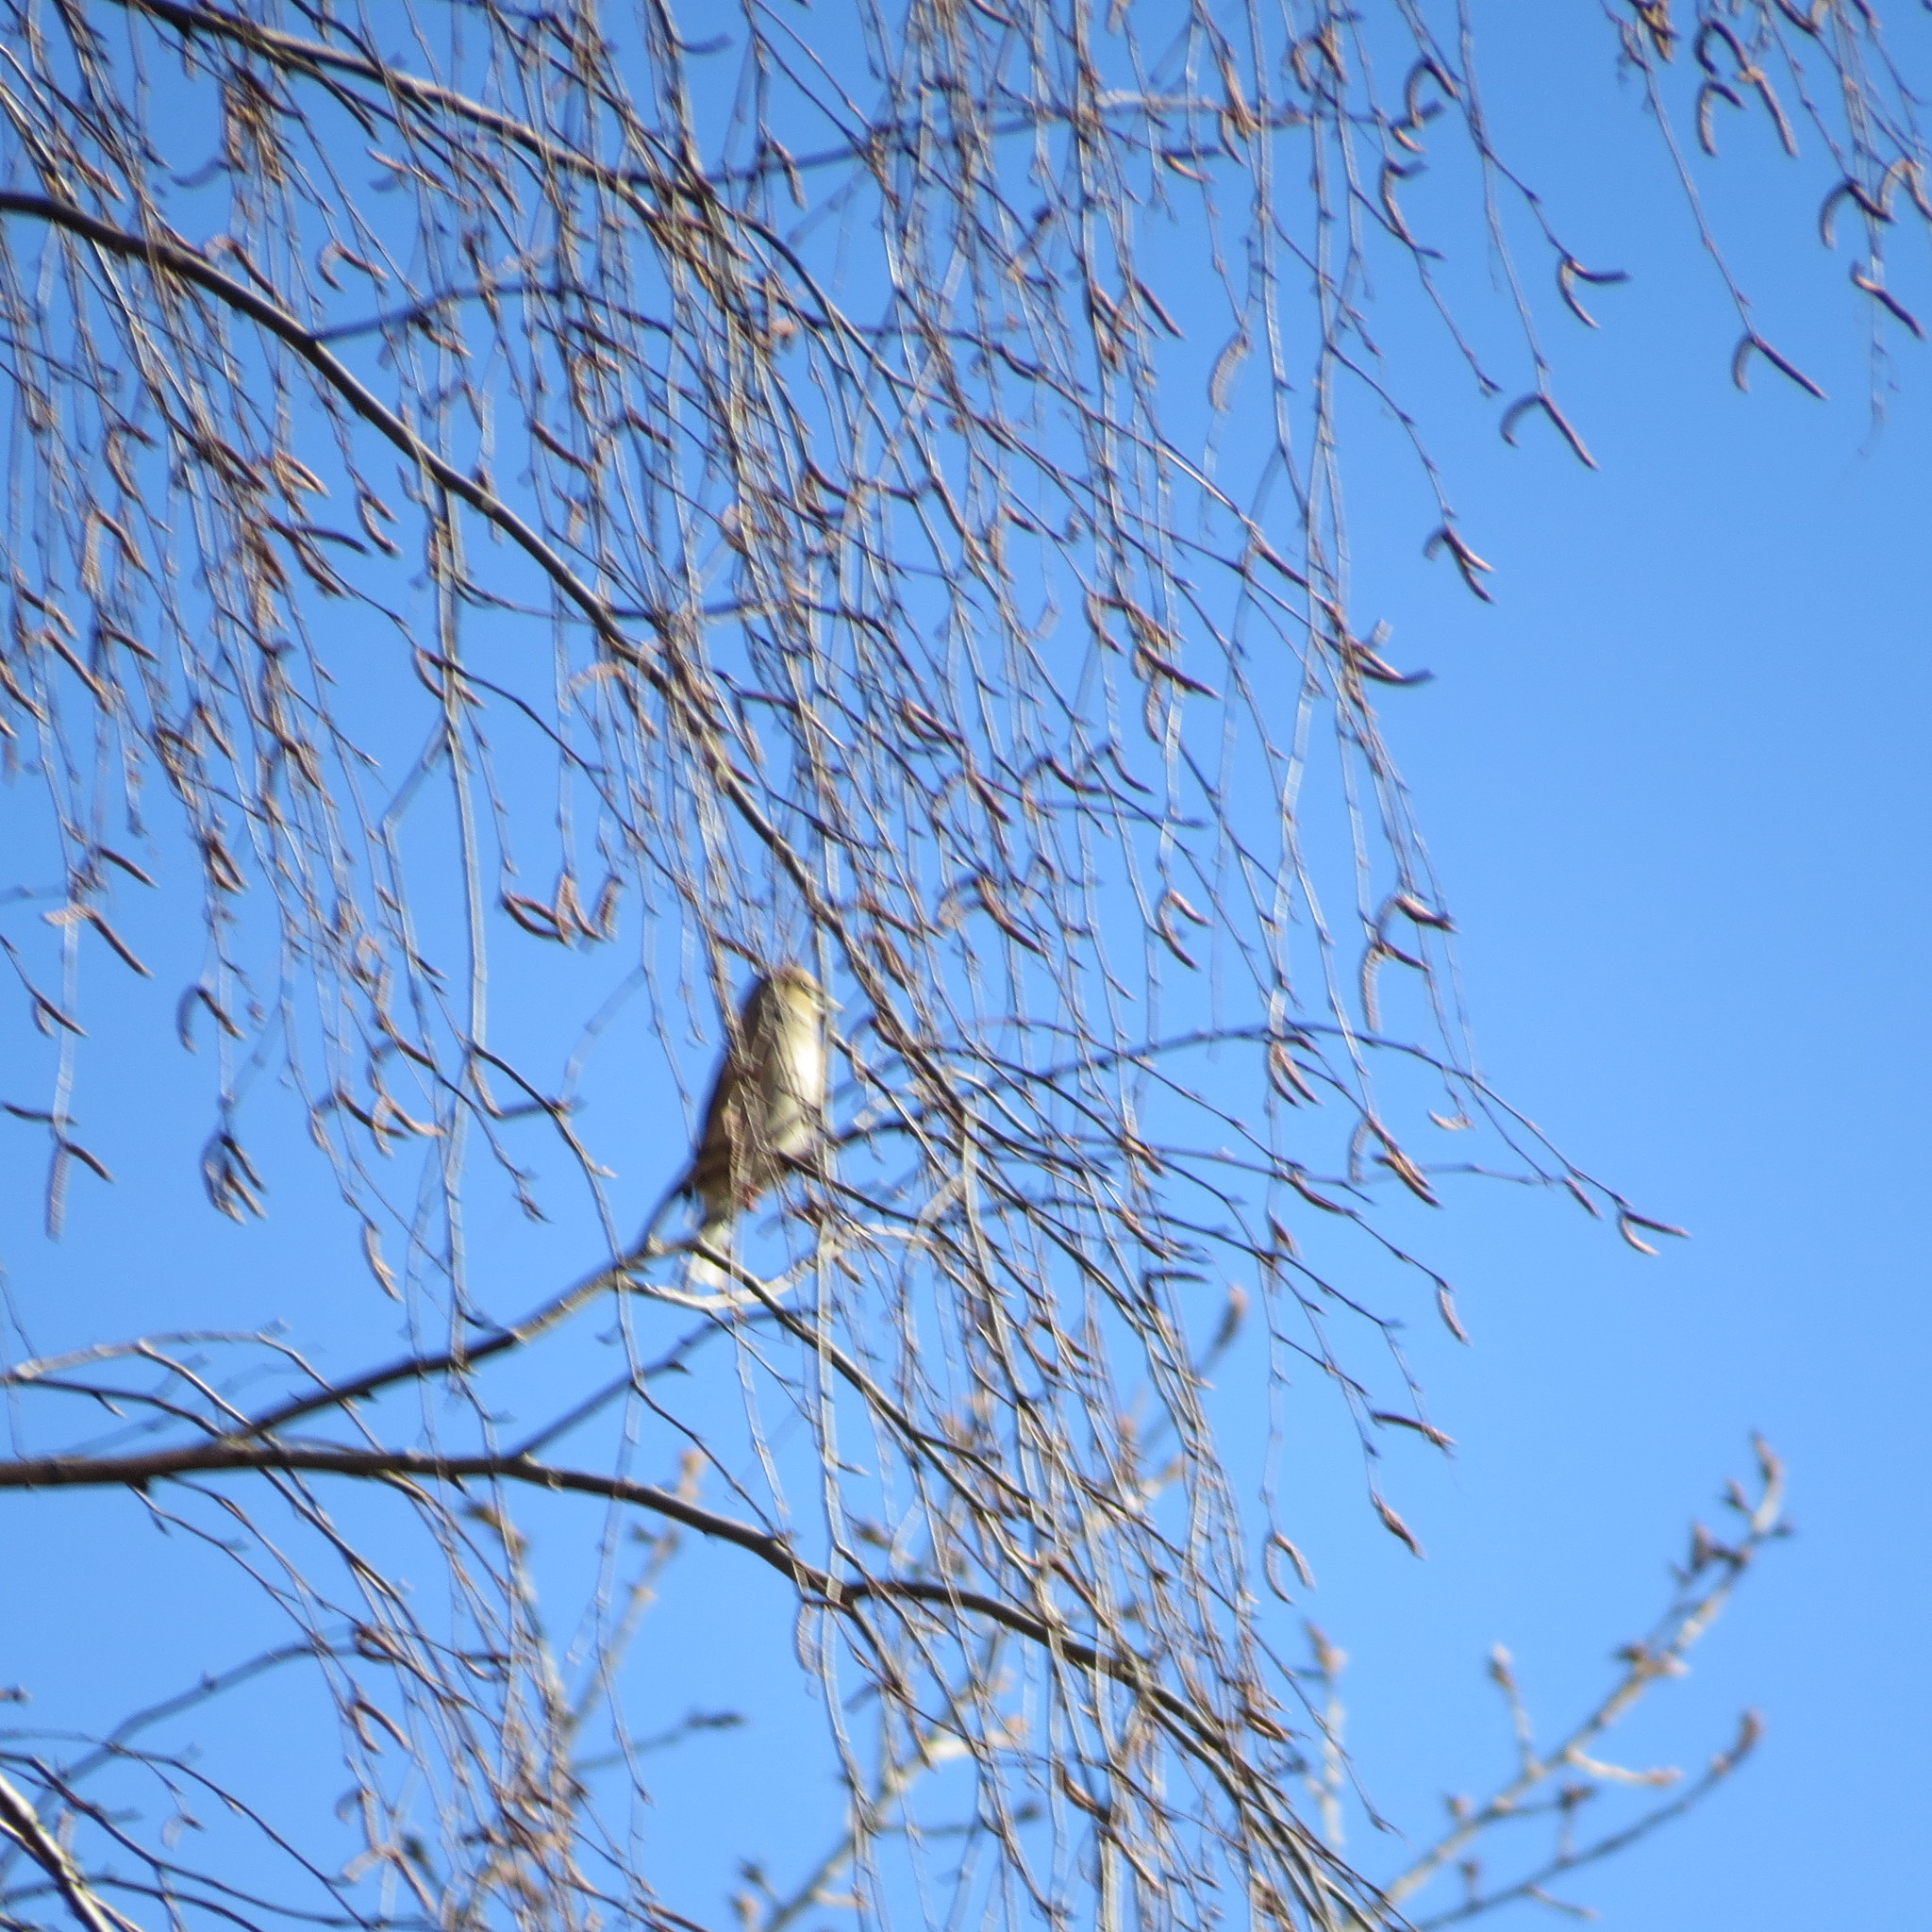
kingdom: Animalia
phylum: Chordata
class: Aves
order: Passeriformes
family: Fringillidae
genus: Coccothraustes
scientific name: Coccothraustes coccothraustes
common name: Hawfinch
